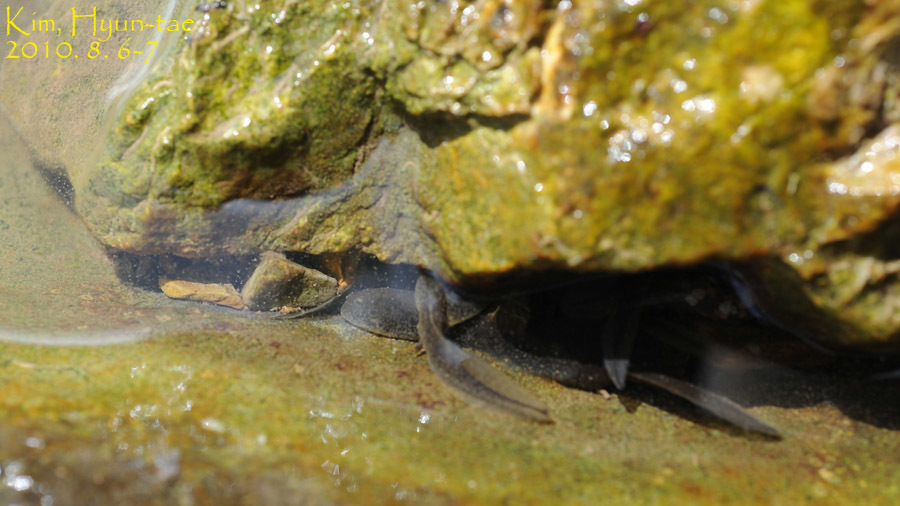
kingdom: Animalia
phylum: Chordata
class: Amphibia
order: Anura
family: Ranidae
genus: Rana
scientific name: Rana huanrenensis
